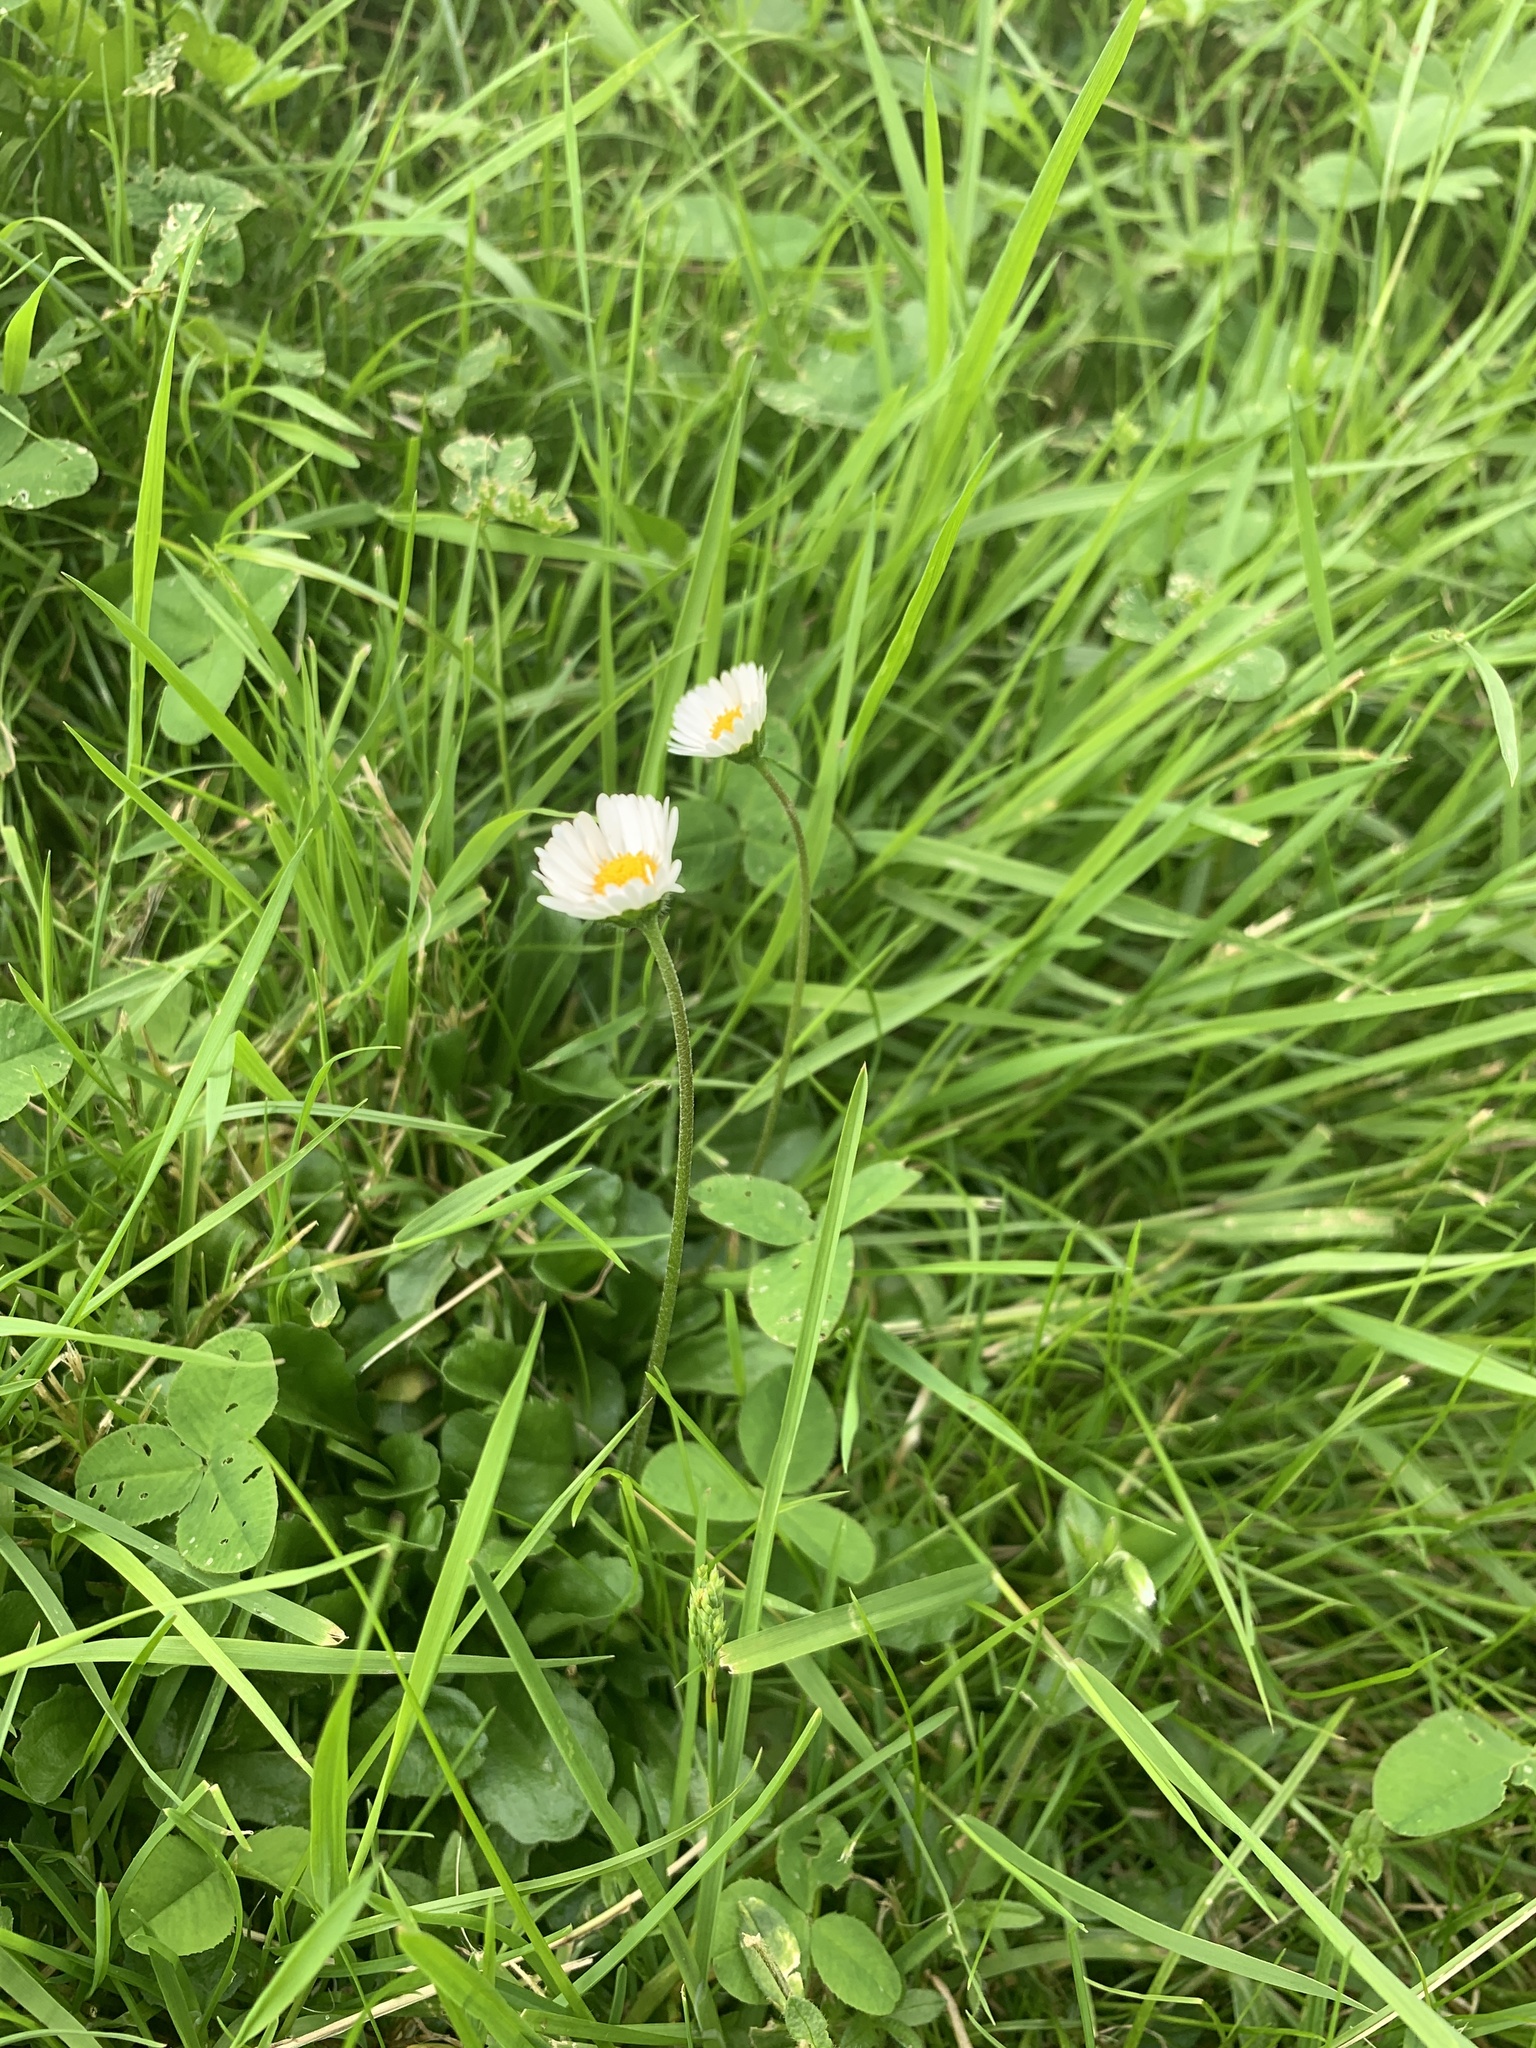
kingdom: Plantae
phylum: Tracheophyta
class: Magnoliopsida
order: Asterales
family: Asteraceae
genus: Bellis
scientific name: Bellis perennis
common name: Lawndaisy
